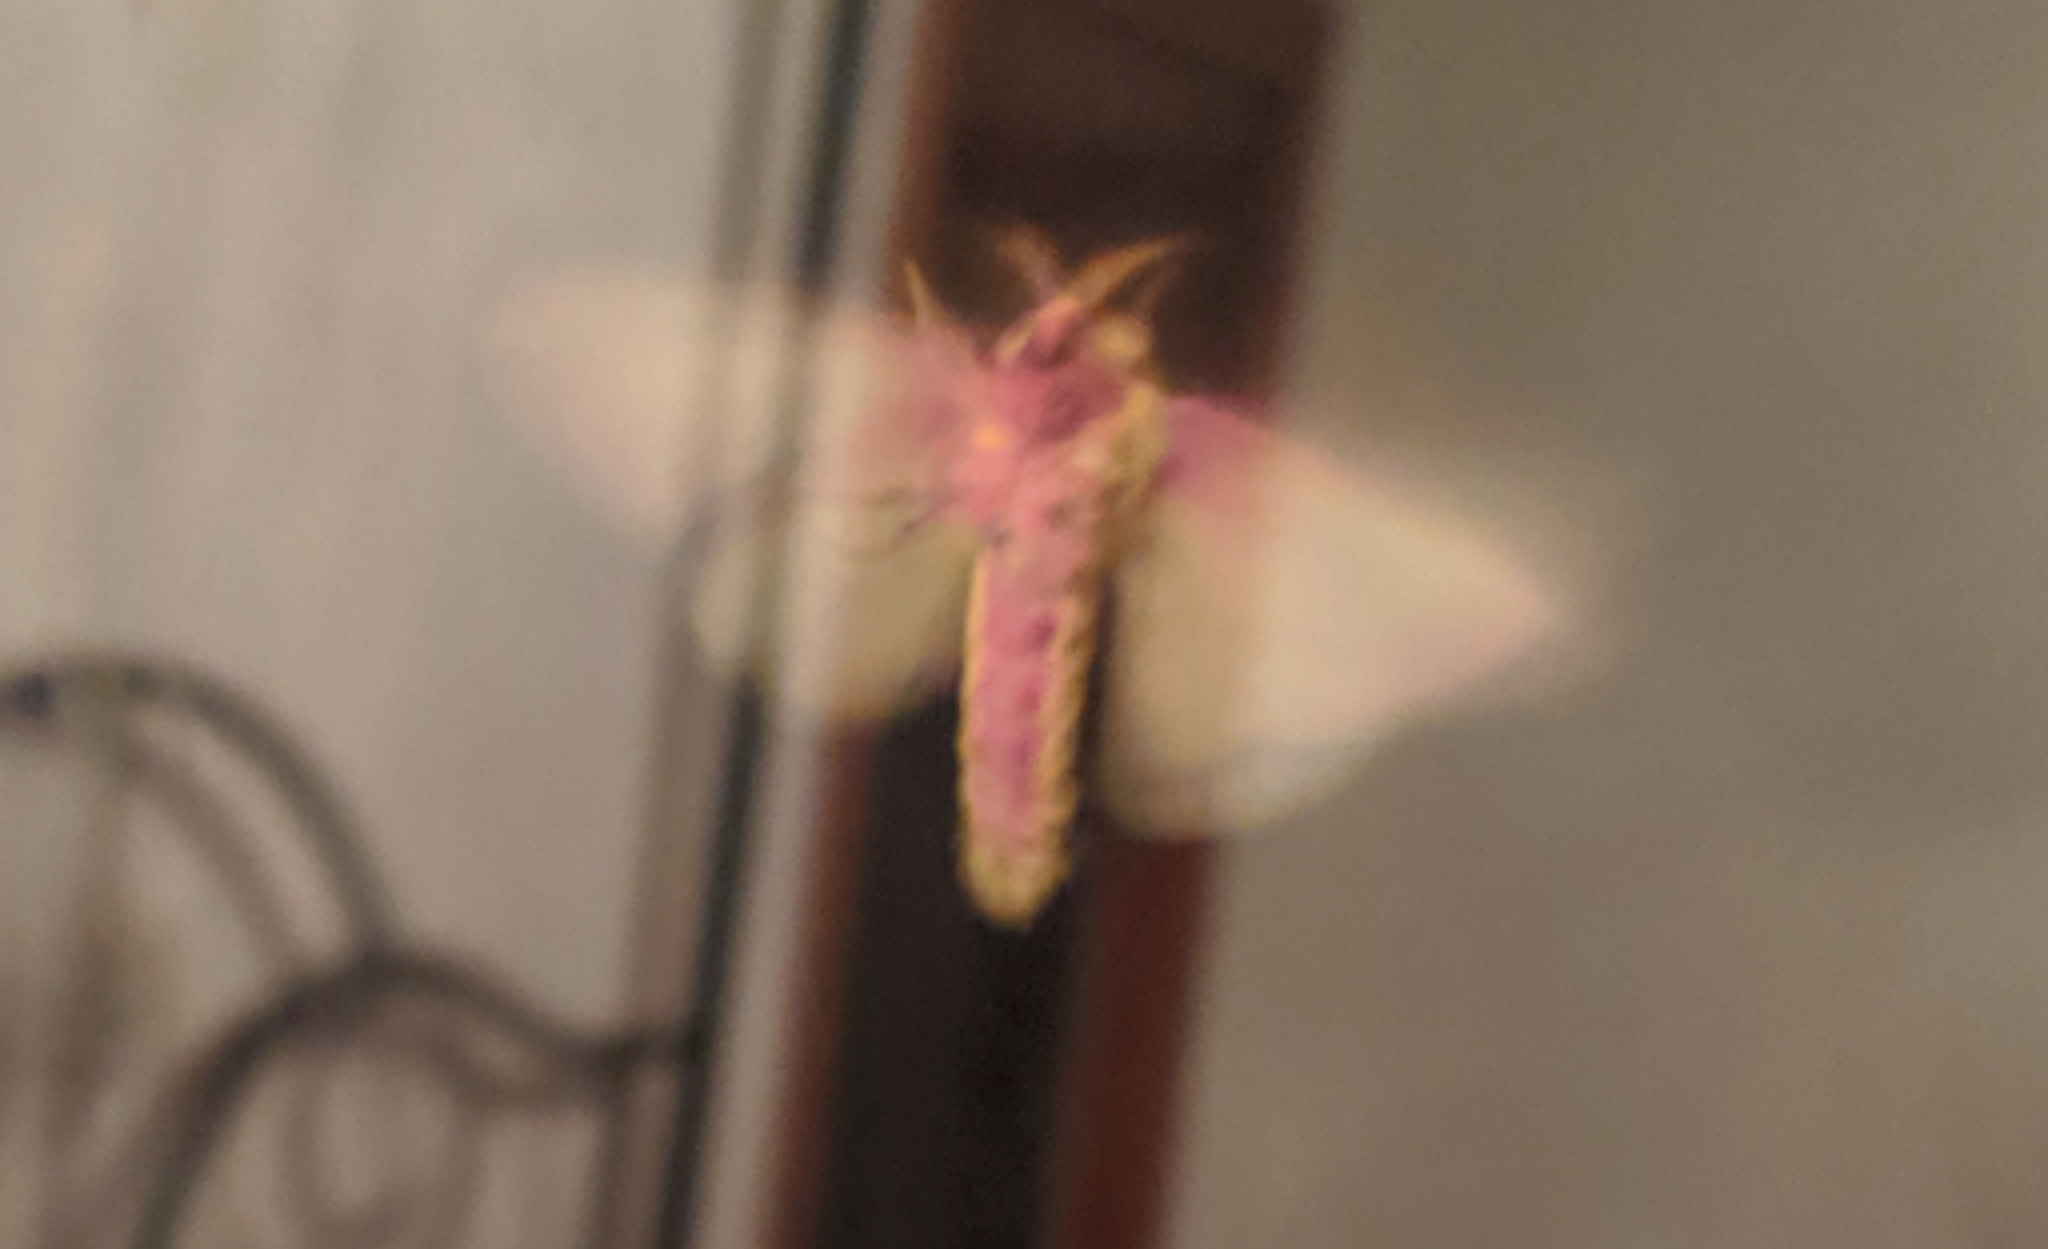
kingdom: Animalia
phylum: Arthropoda
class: Insecta
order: Lepidoptera
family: Saturniidae
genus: Dryocampa
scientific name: Dryocampa rubicunda
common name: Rosy maple moth
